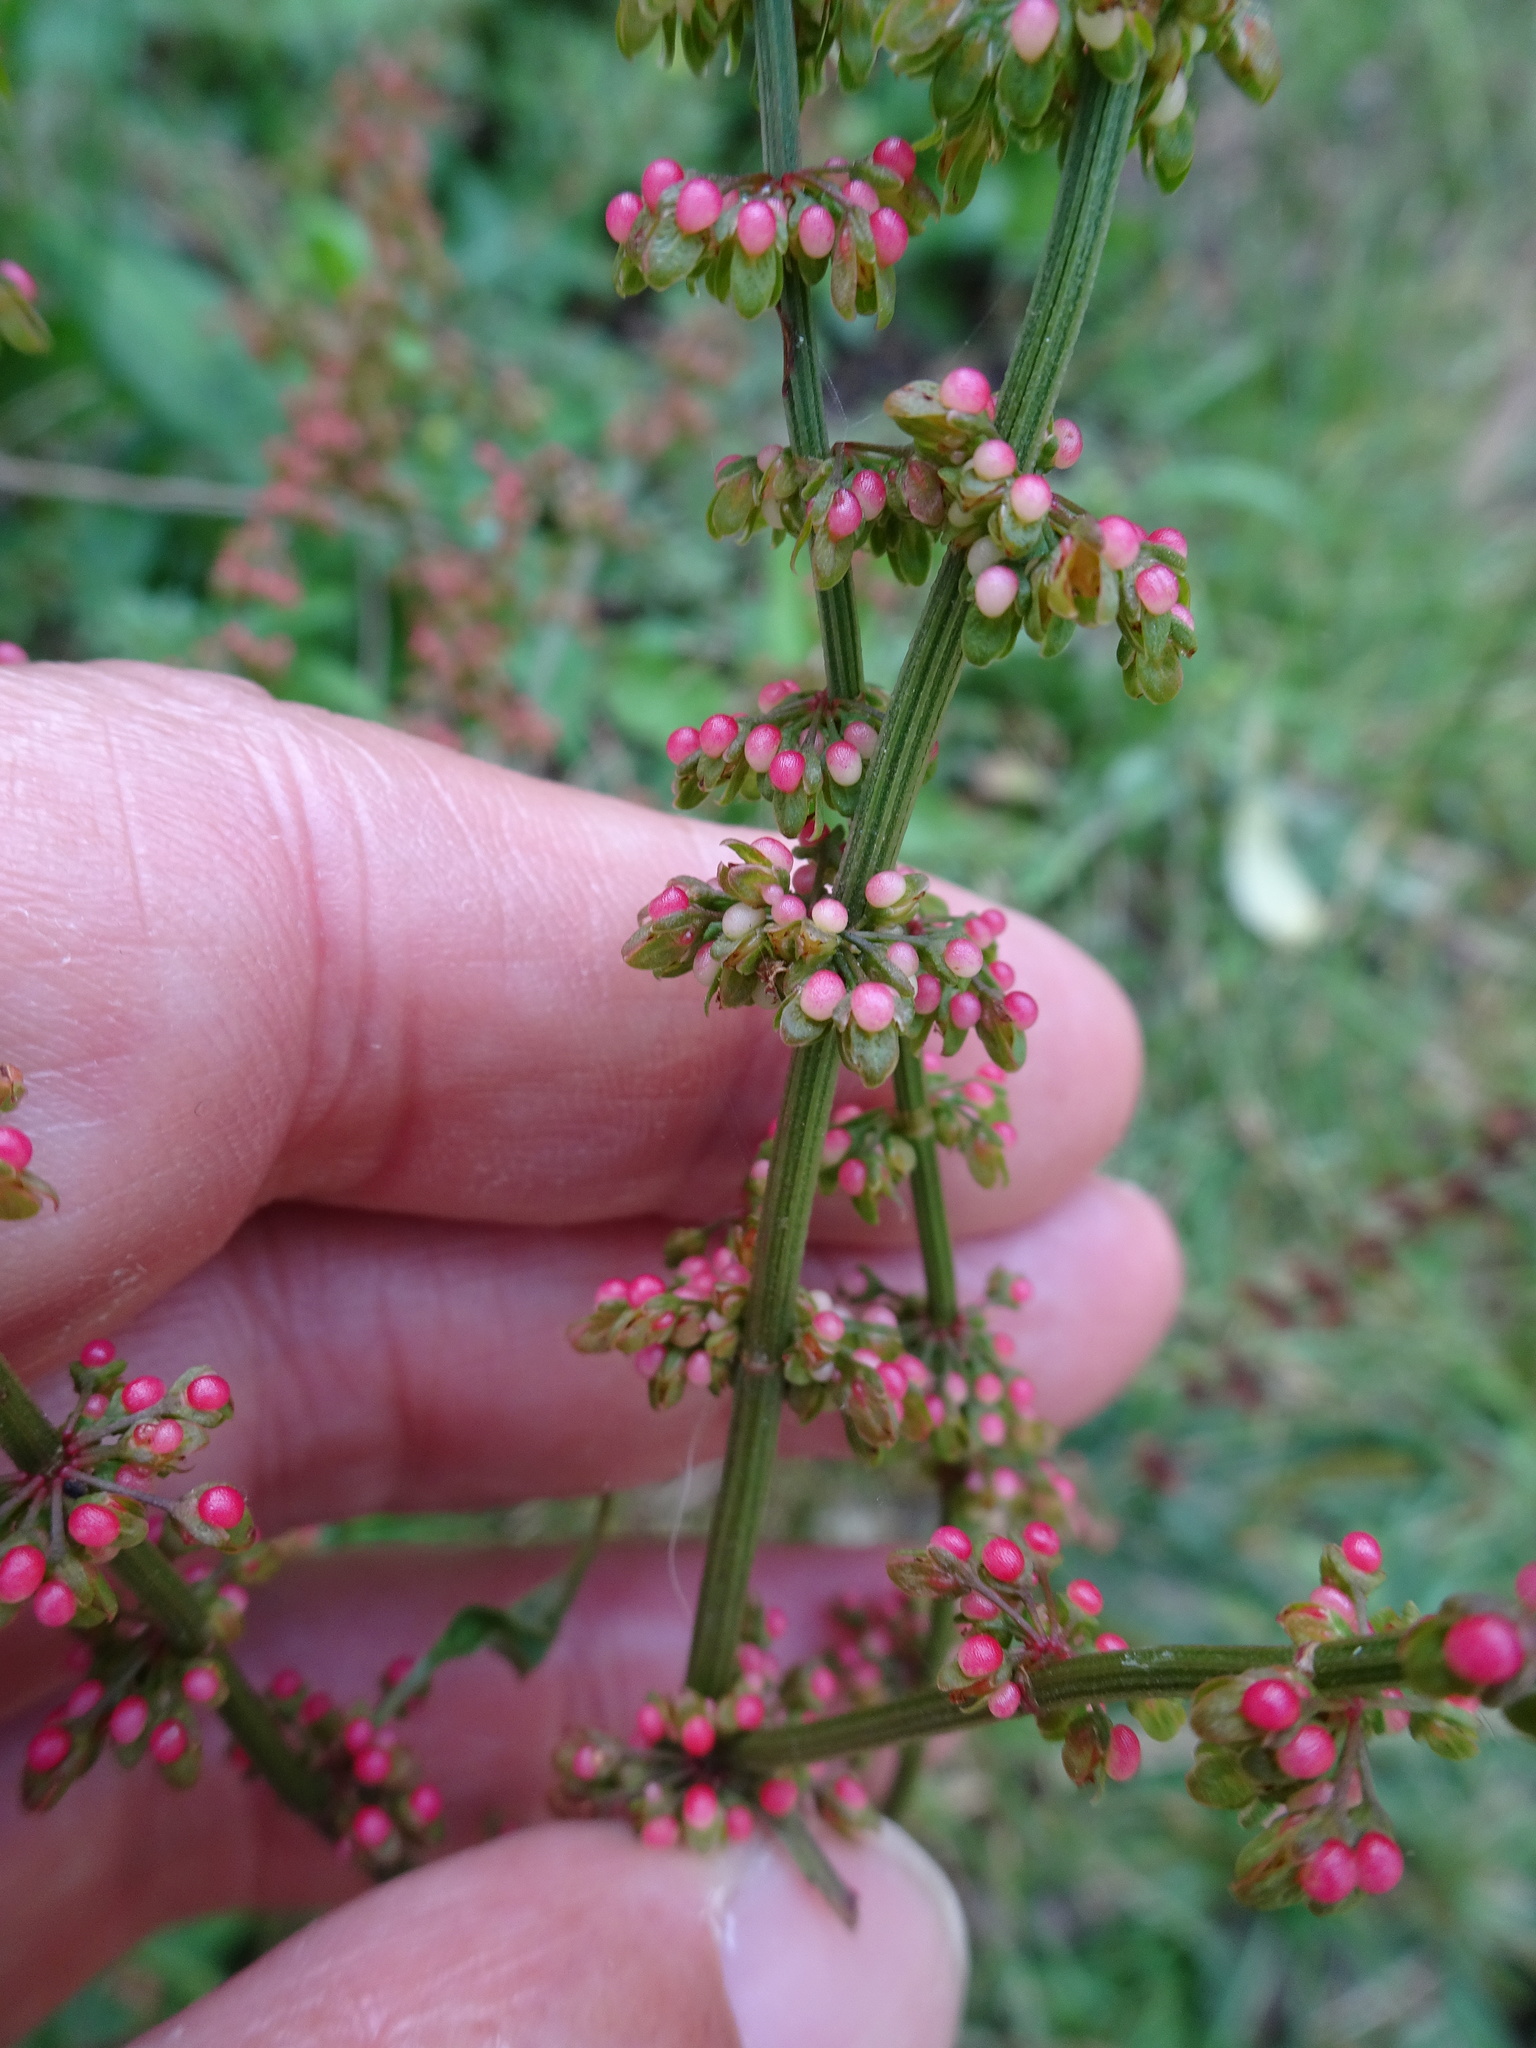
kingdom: Plantae
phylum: Tracheophyta
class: Magnoliopsida
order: Caryophyllales
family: Polygonaceae
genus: Rumex
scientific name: Rumex sanguineus
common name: Wood dock
